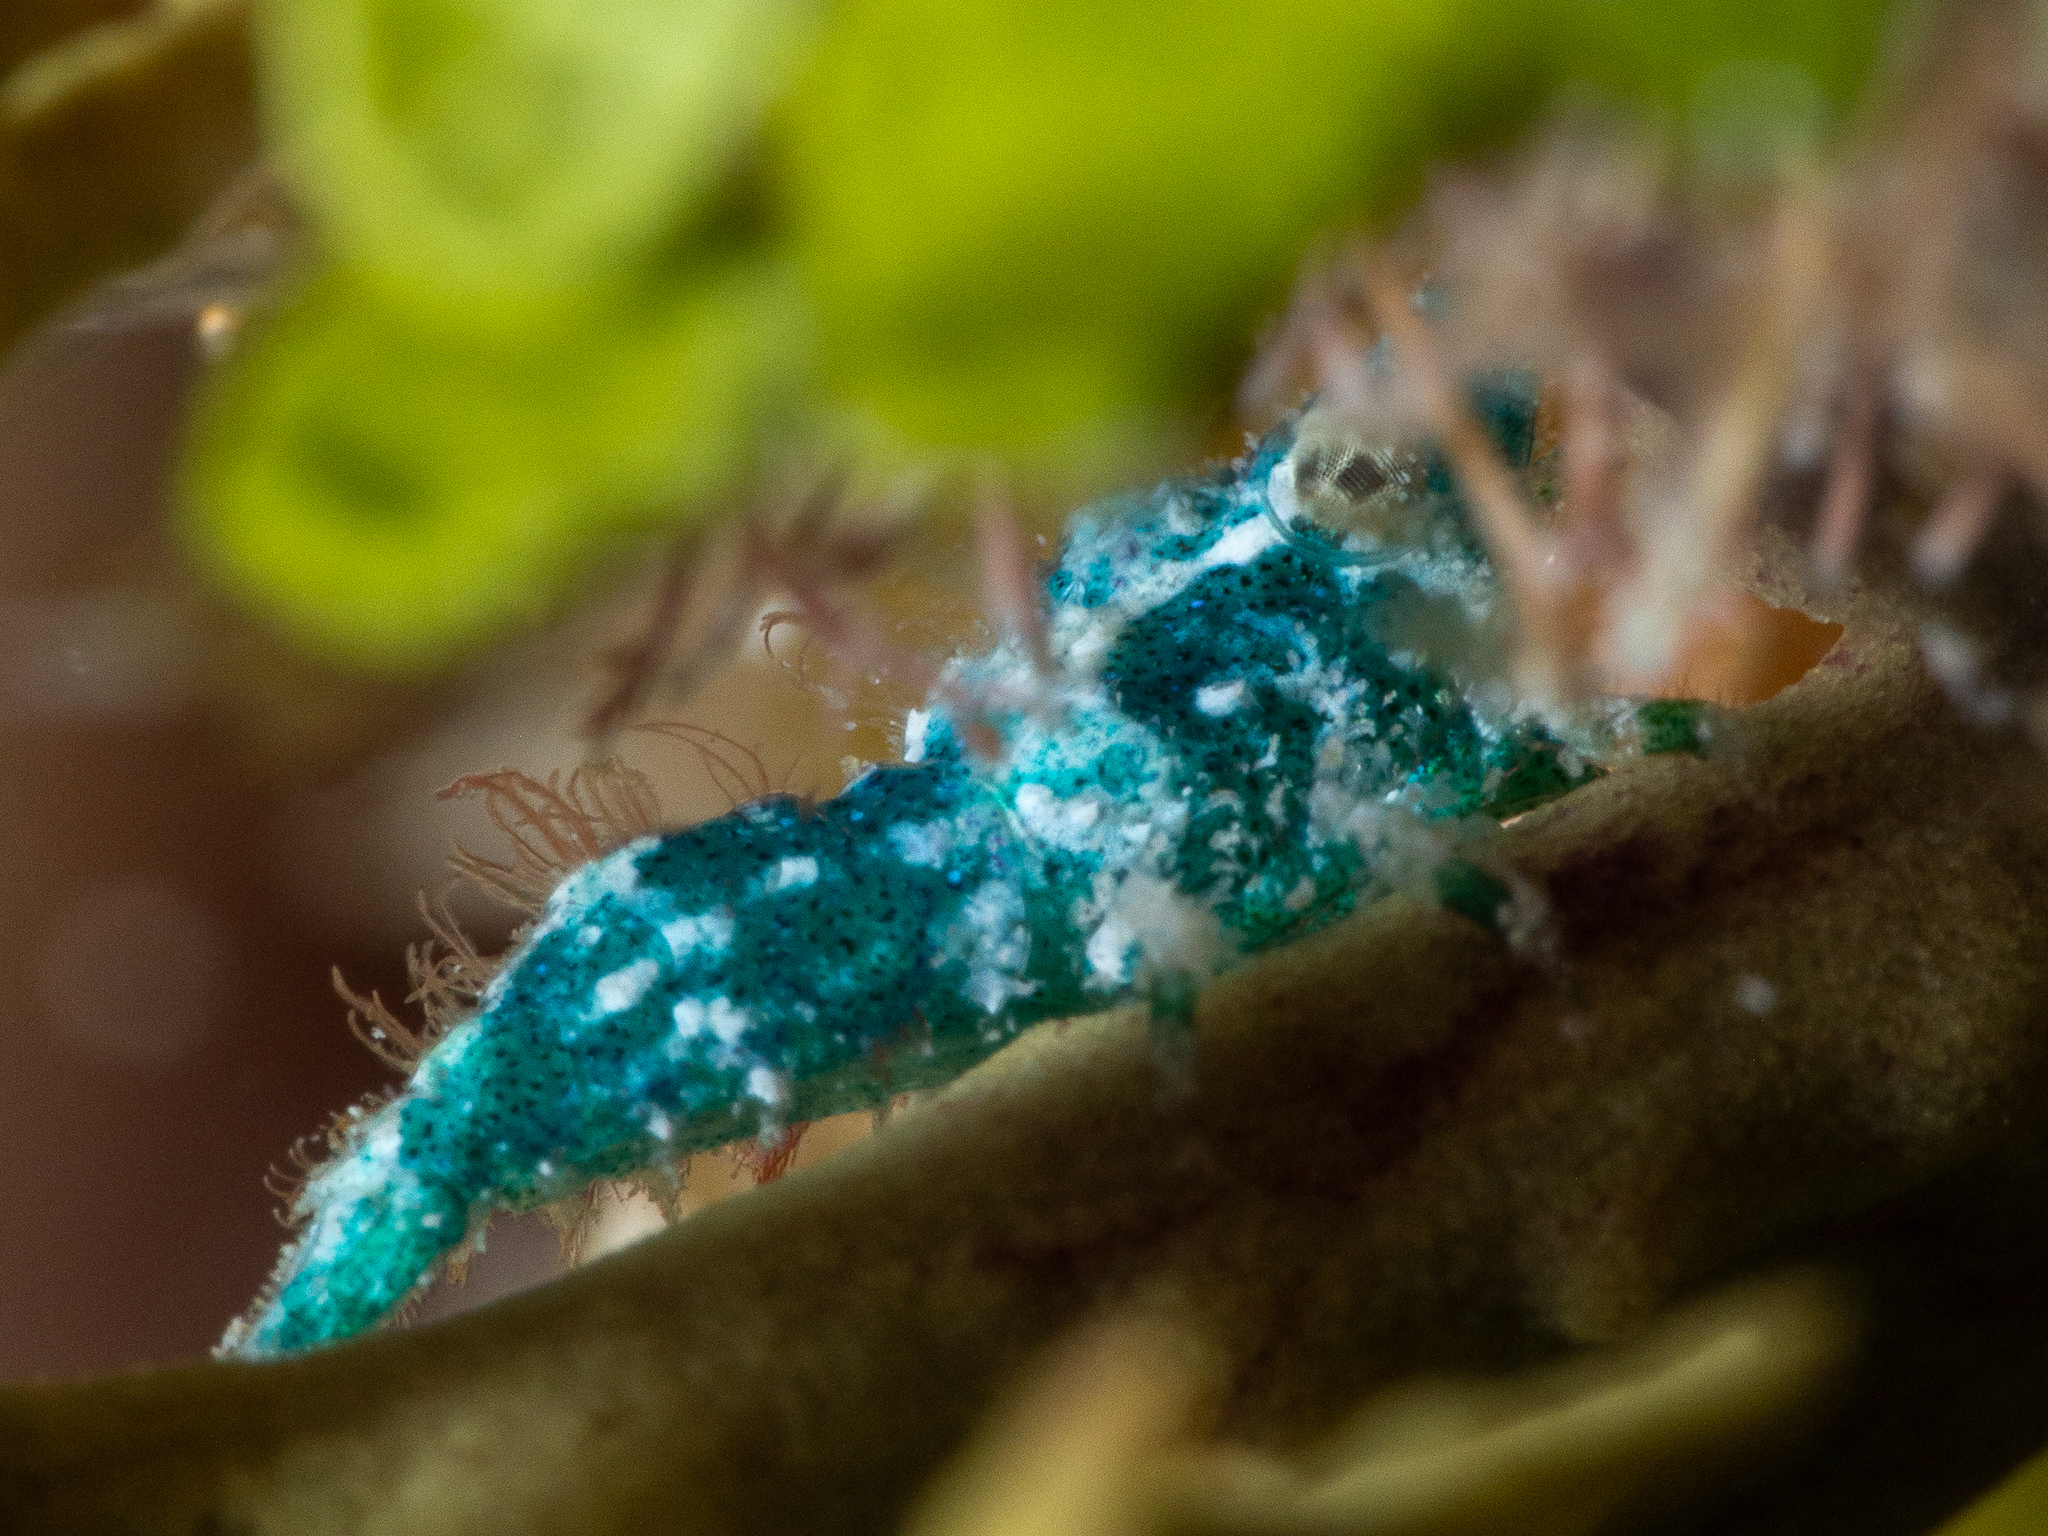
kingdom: Animalia
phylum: Arthropoda
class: Malacostraca
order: Decapoda
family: Hippolytidae
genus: Trachycaris
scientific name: Trachycaris rugosa
